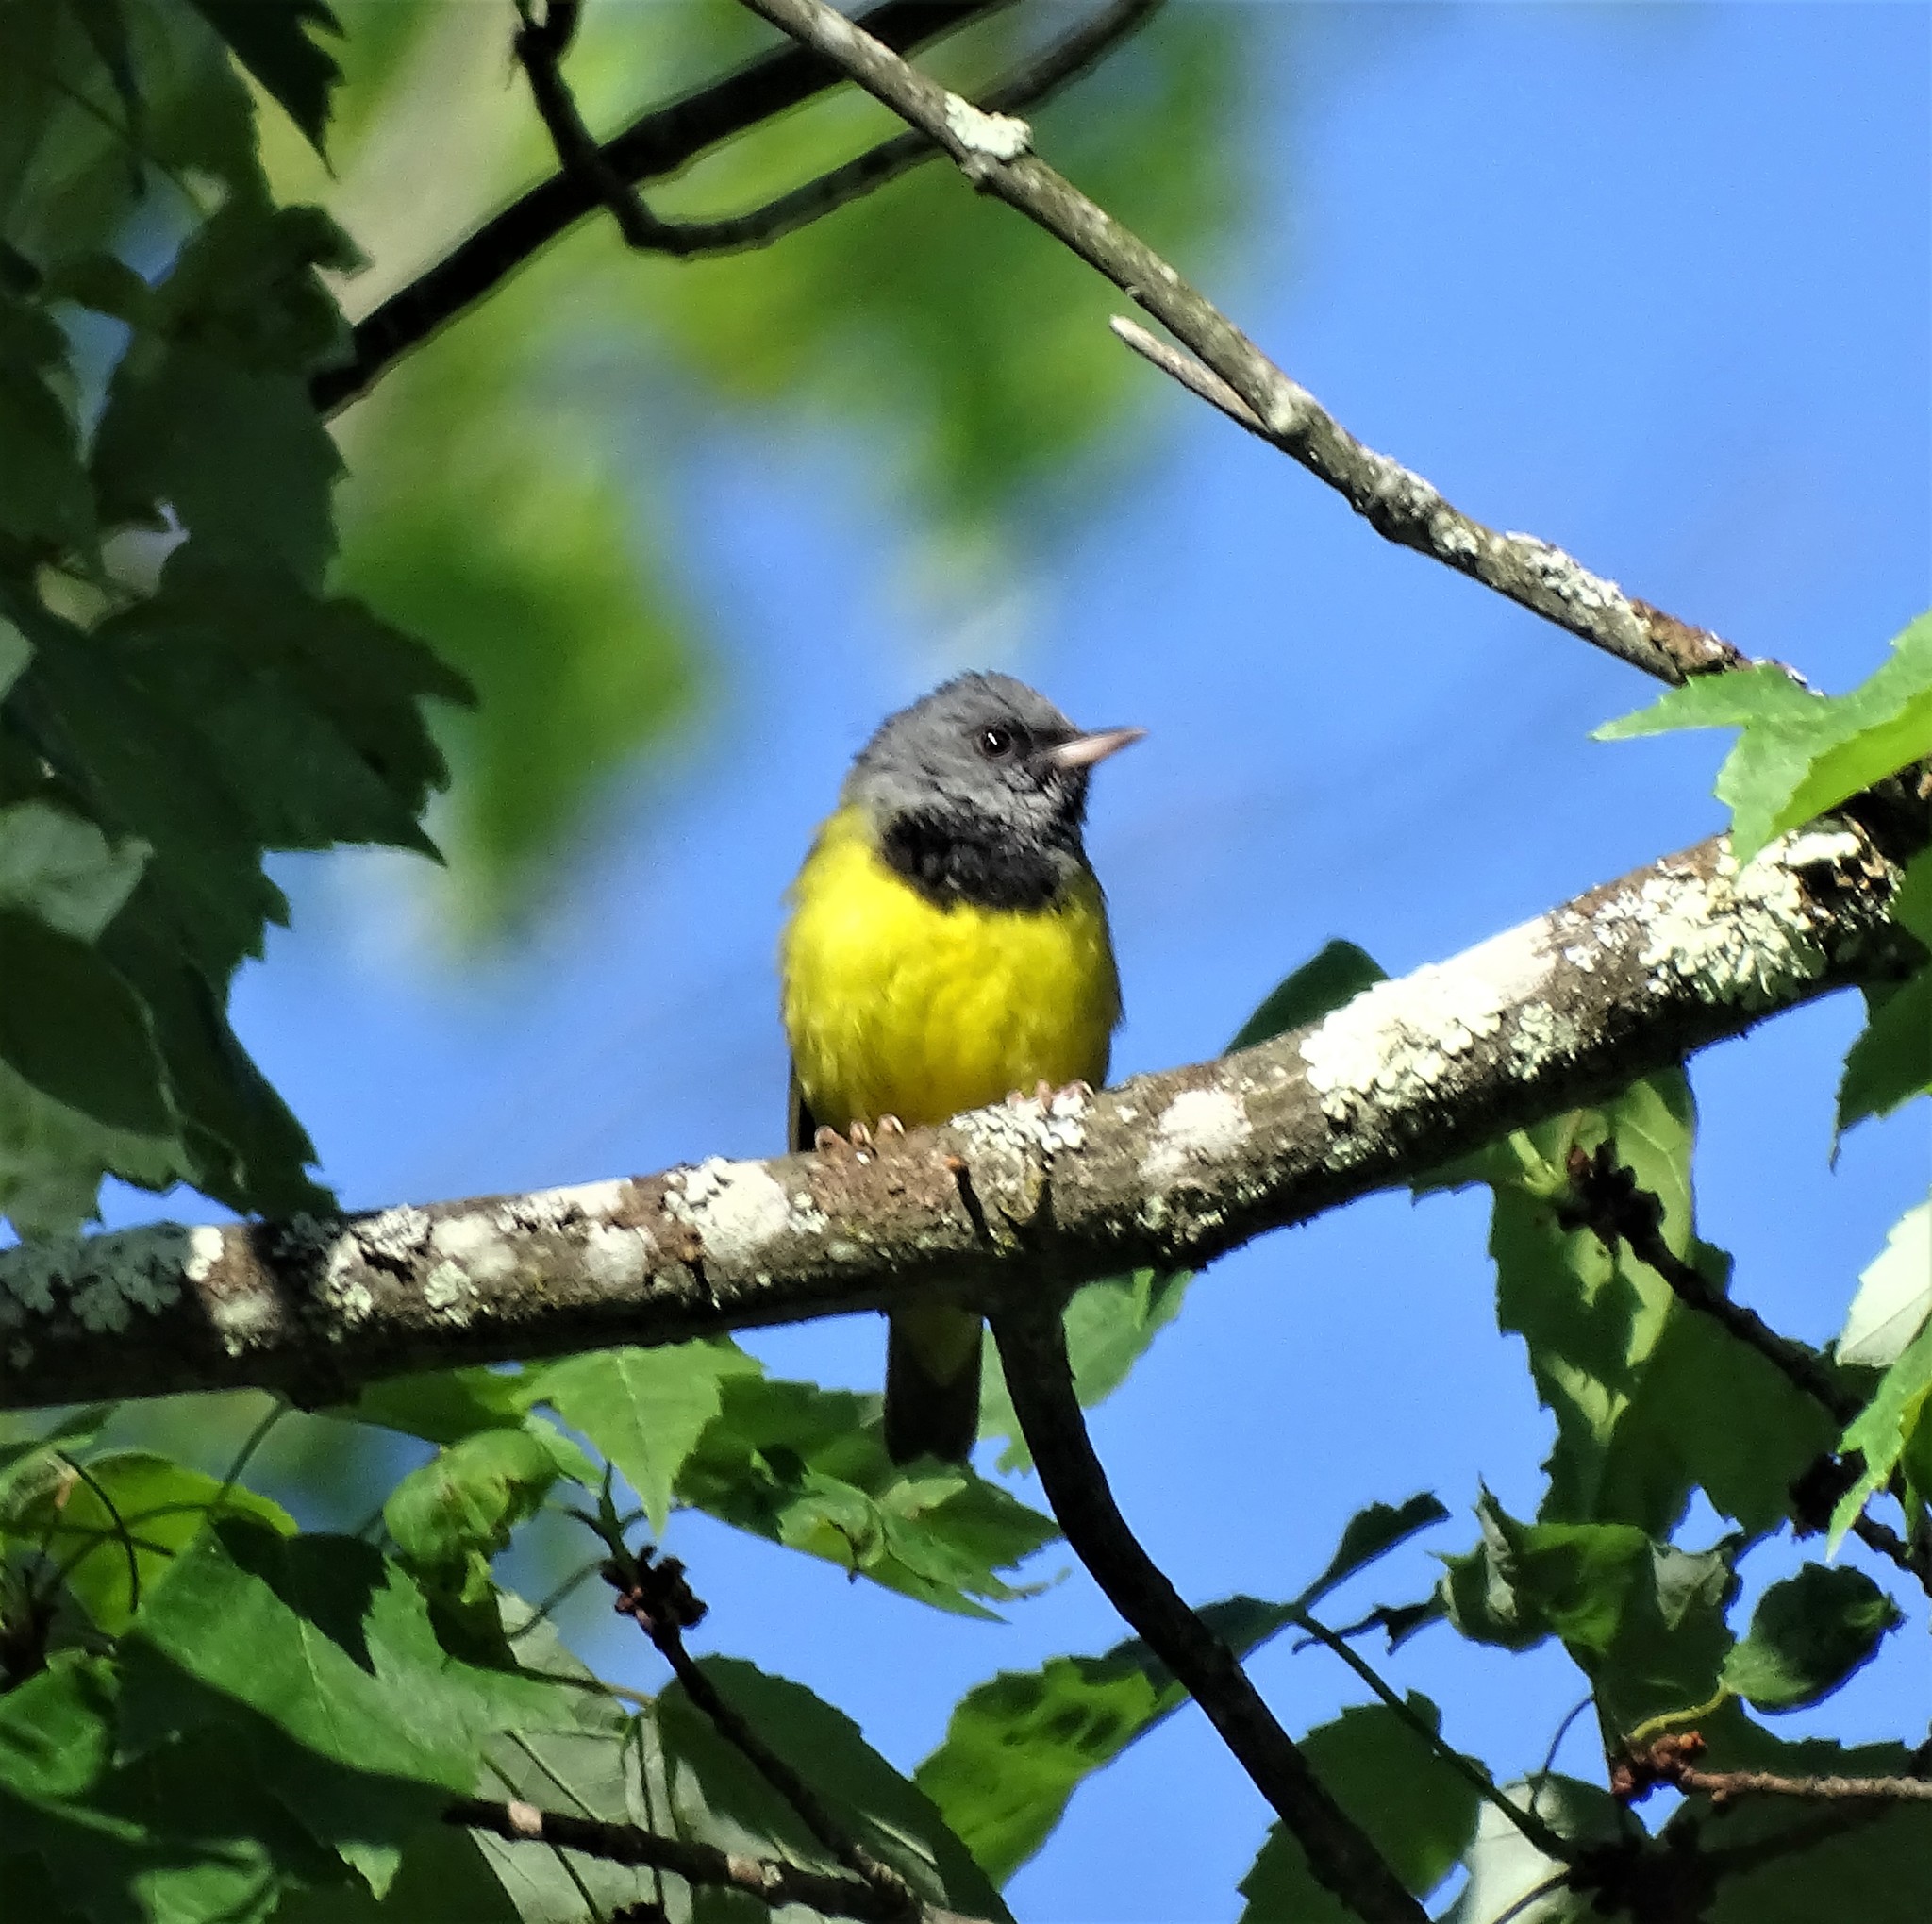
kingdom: Animalia
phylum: Chordata
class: Aves
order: Passeriformes
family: Parulidae
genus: Geothlypis
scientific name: Geothlypis philadelphia
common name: Mourning warbler
